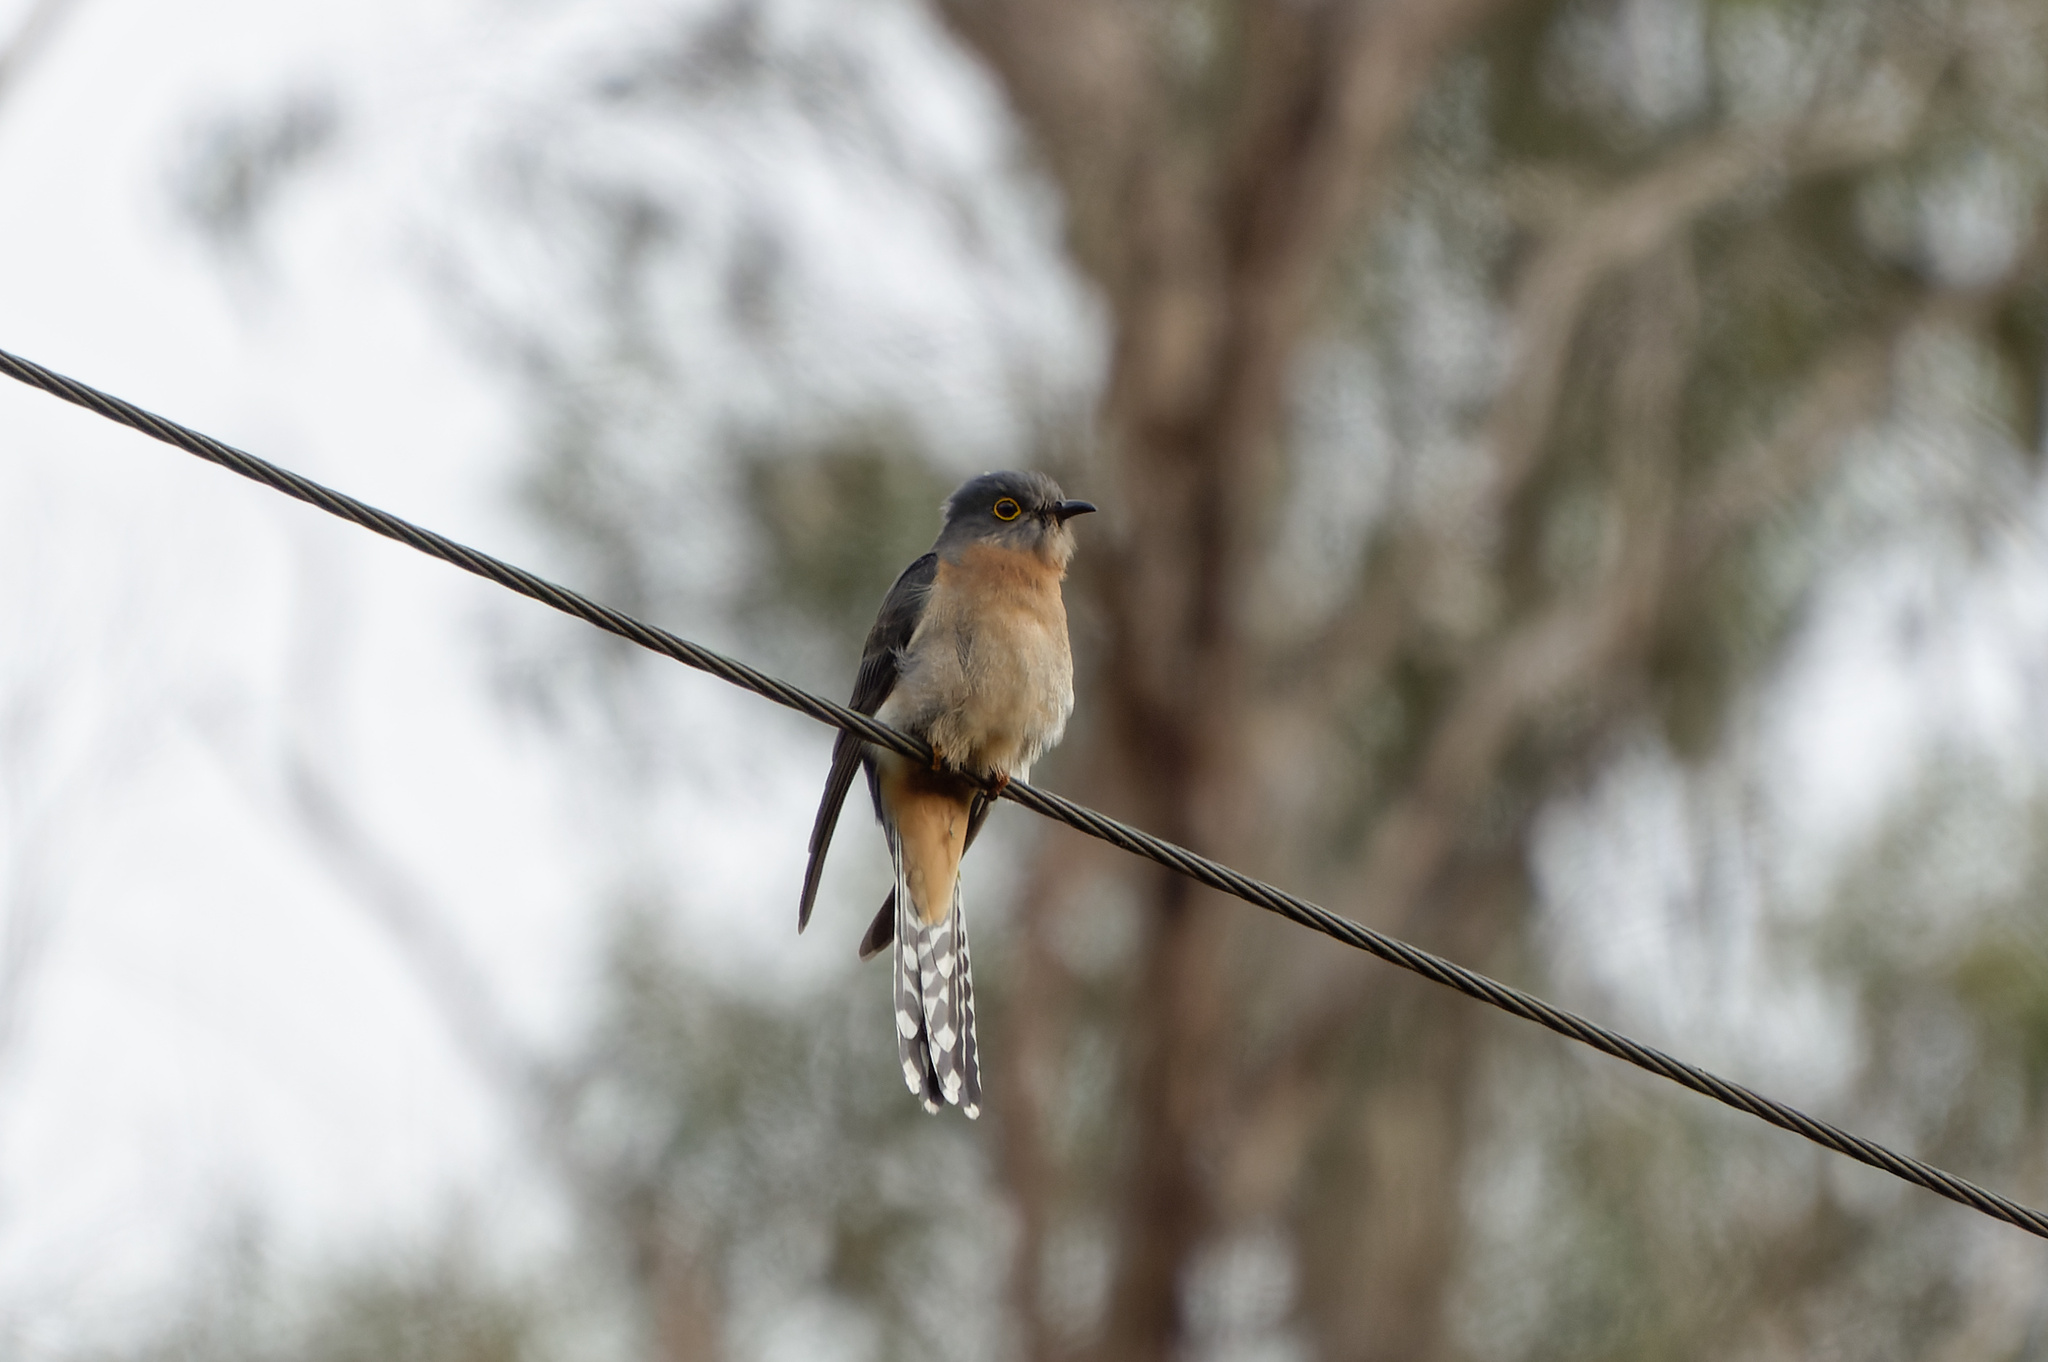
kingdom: Animalia
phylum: Chordata
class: Aves
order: Cuculiformes
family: Cuculidae
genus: Cacomantis
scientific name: Cacomantis flabelliformis
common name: Fan-tailed cuckoo
